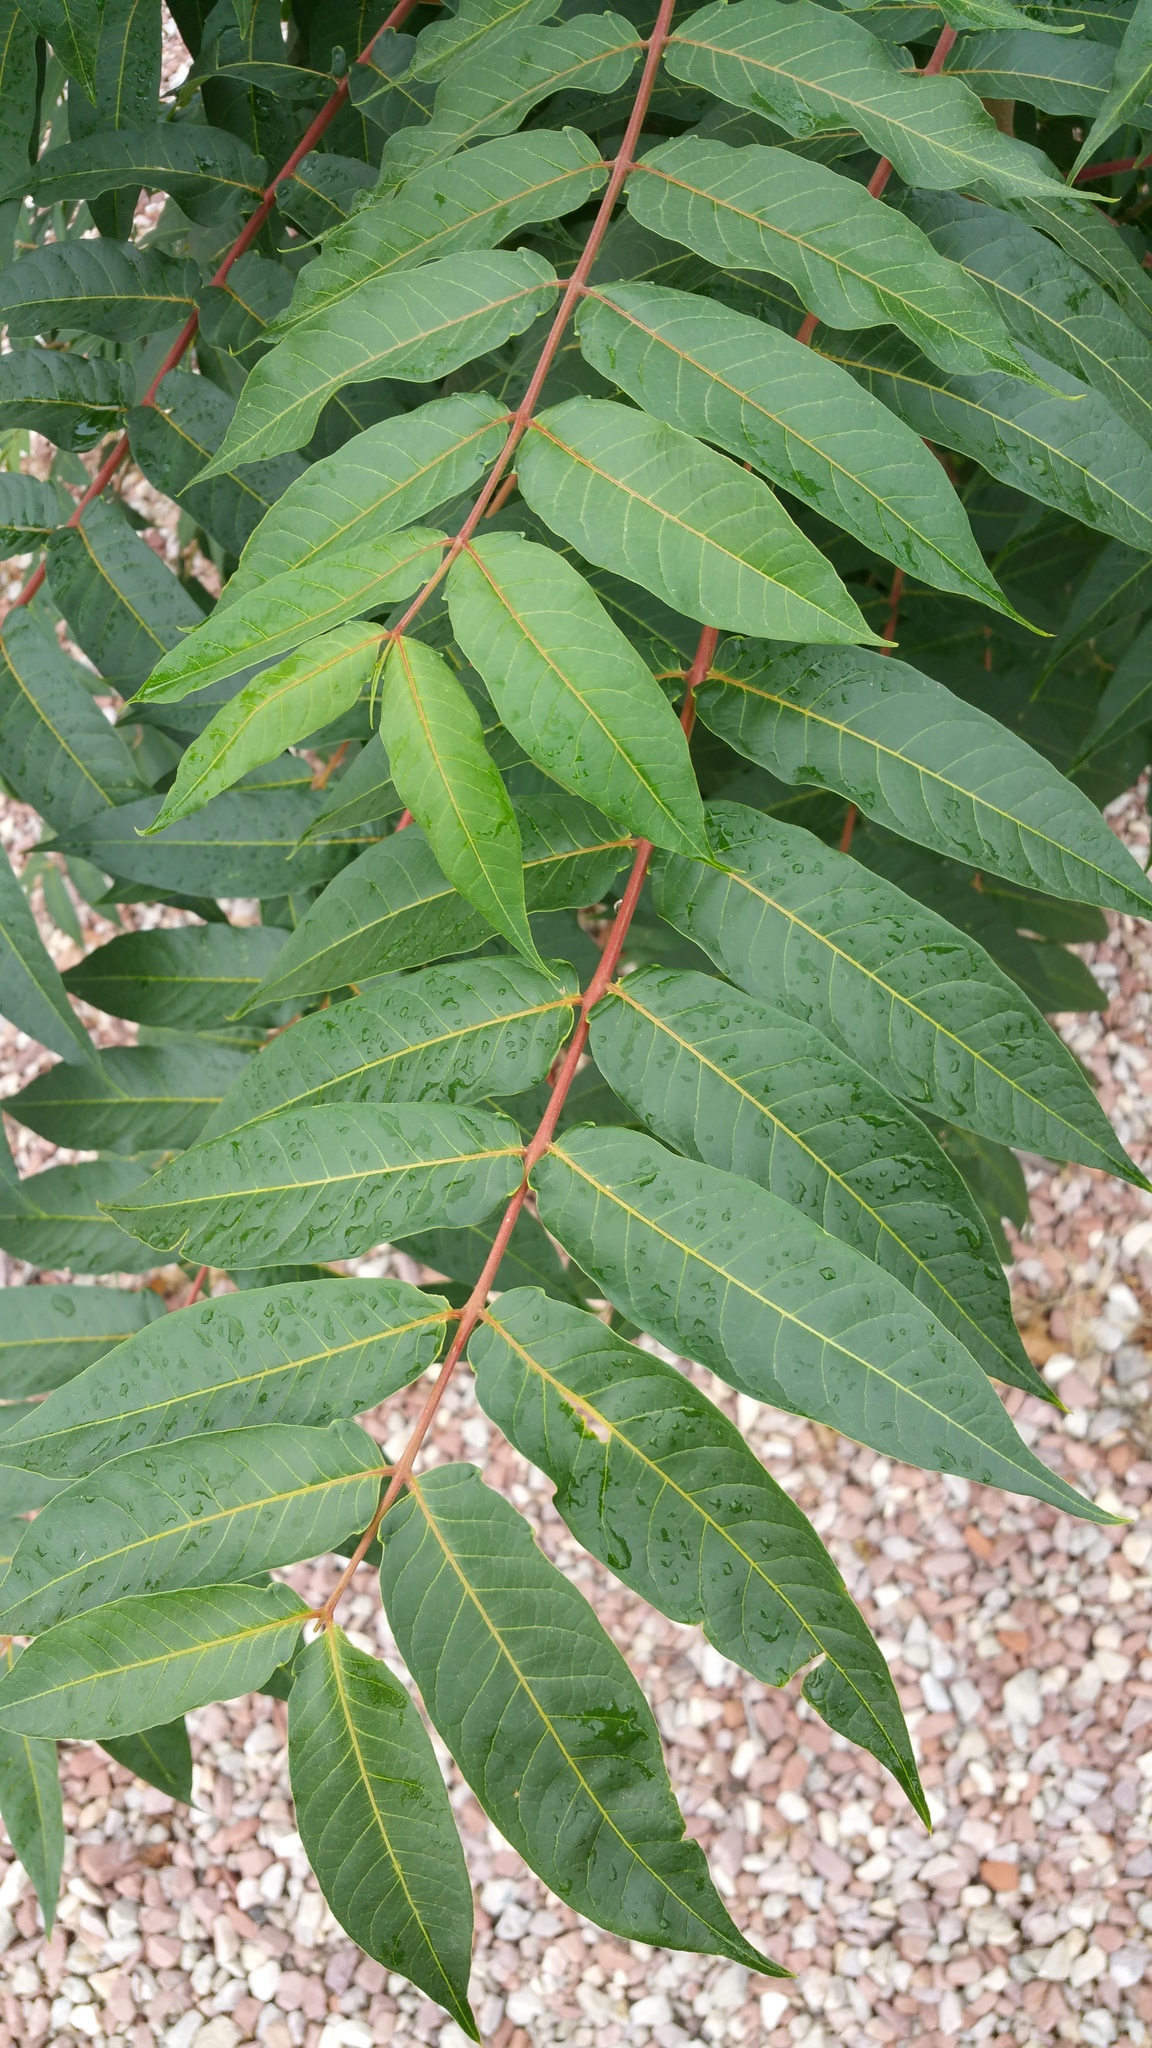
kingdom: Plantae
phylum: Tracheophyta
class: Magnoliopsida
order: Sapindales
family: Simaroubaceae
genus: Ailanthus
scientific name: Ailanthus altissima
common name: Tree-of-heaven
